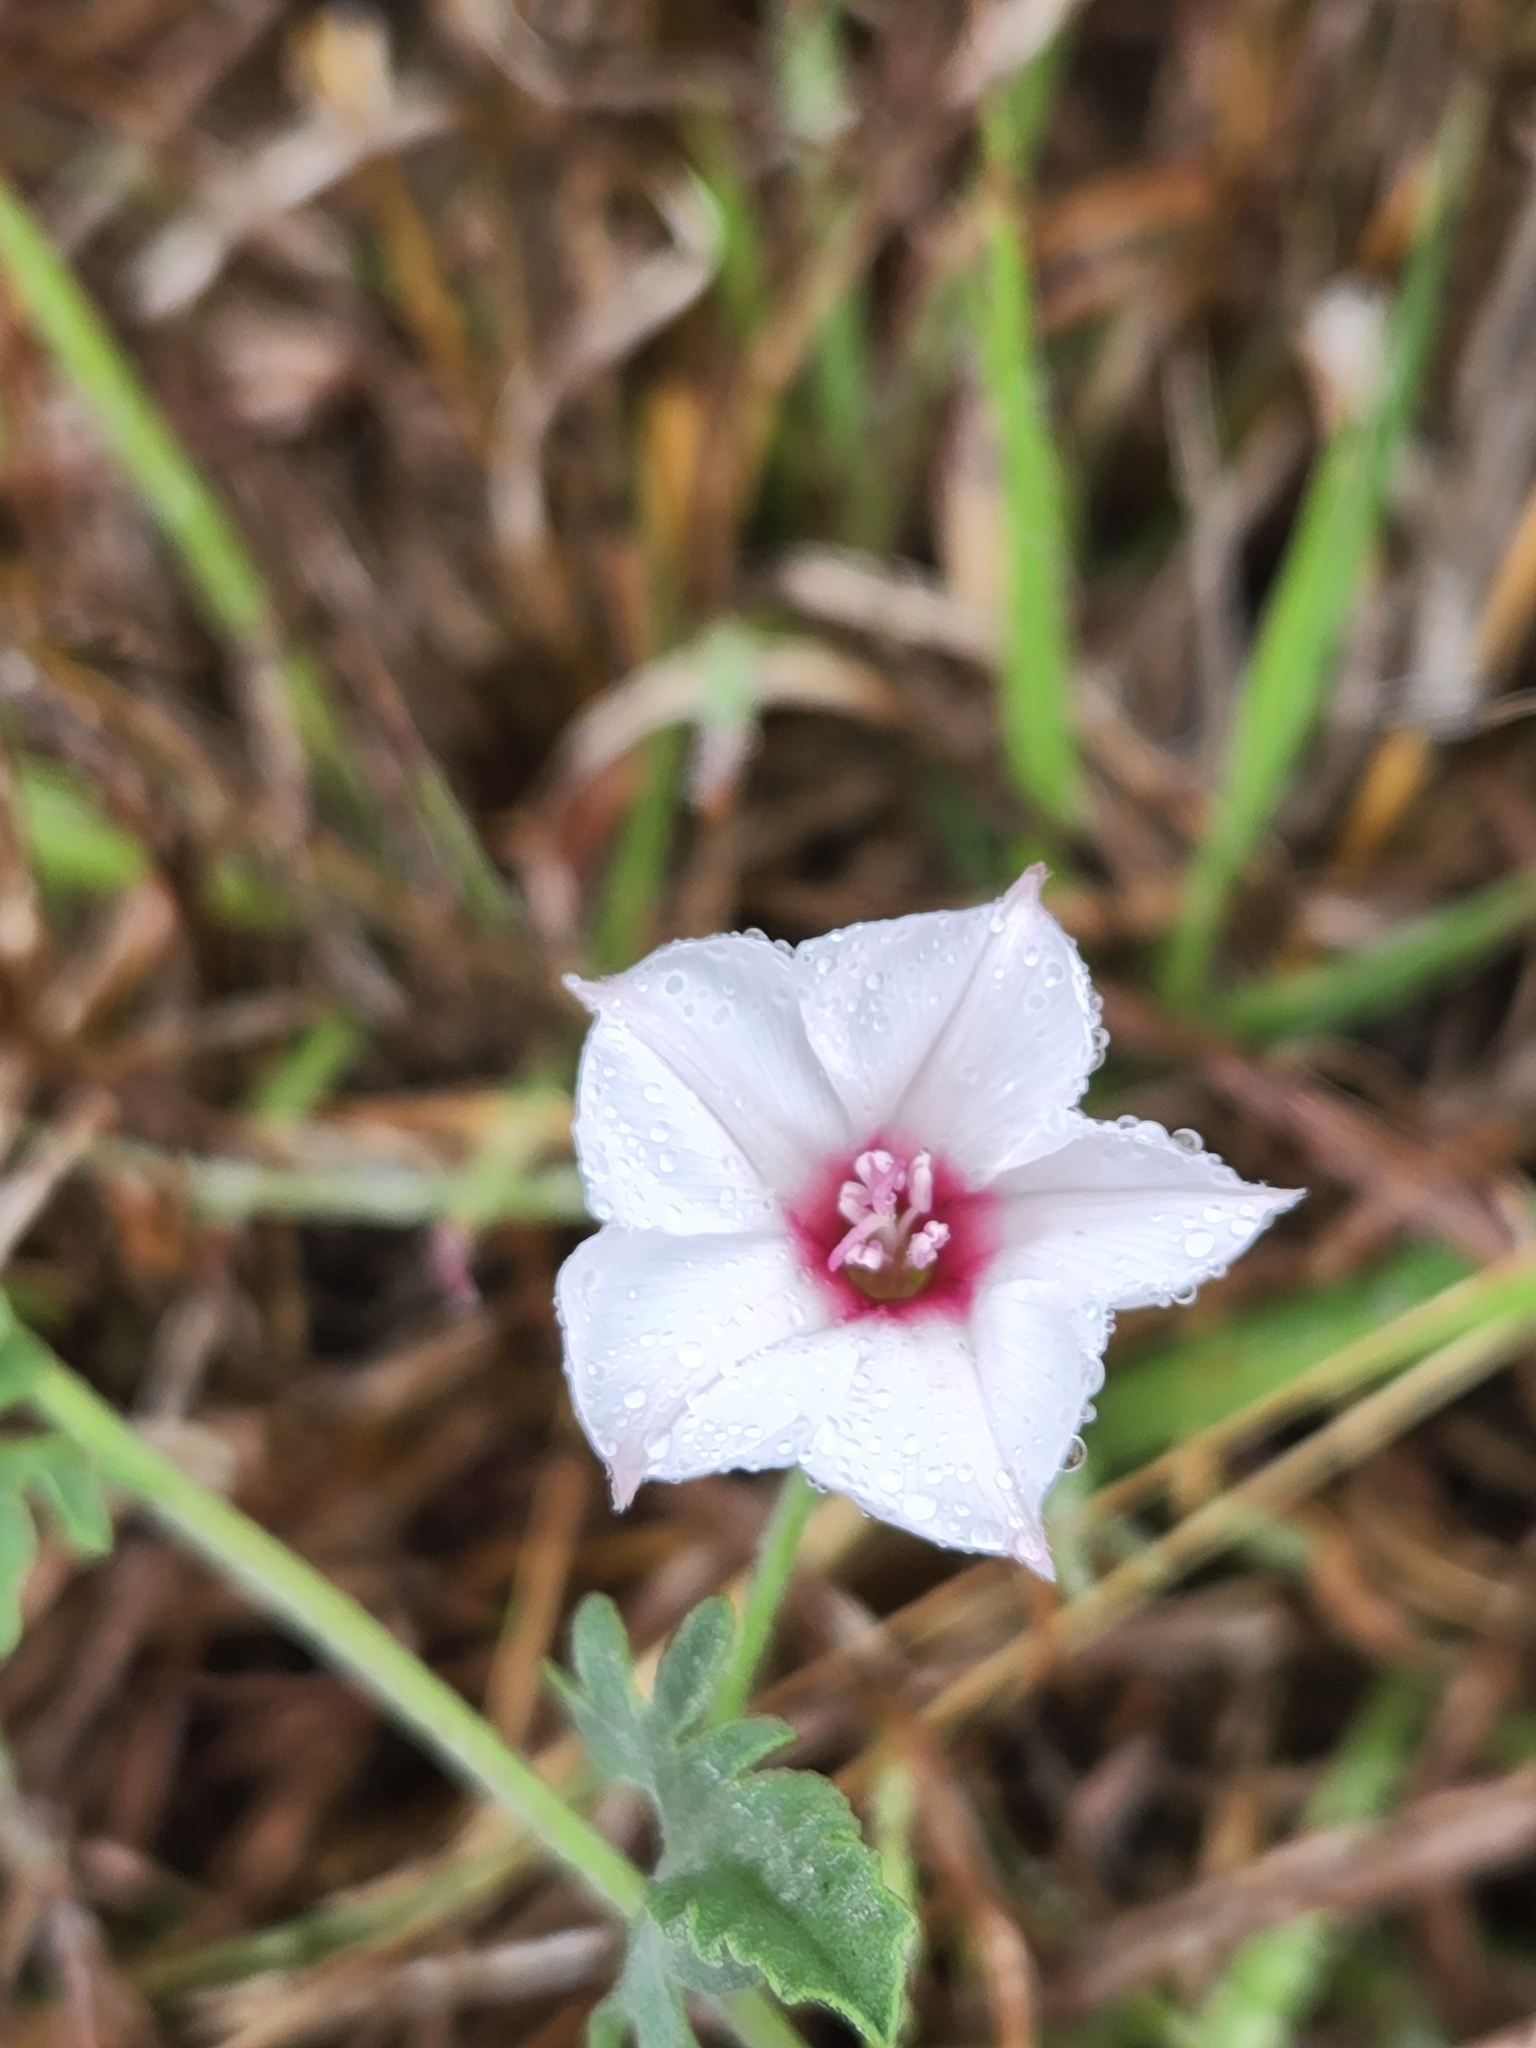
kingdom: Plantae
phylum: Tracheophyta
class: Magnoliopsida
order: Solanales
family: Convolvulaceae
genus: Convolvulus
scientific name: Convolvulus equitans
